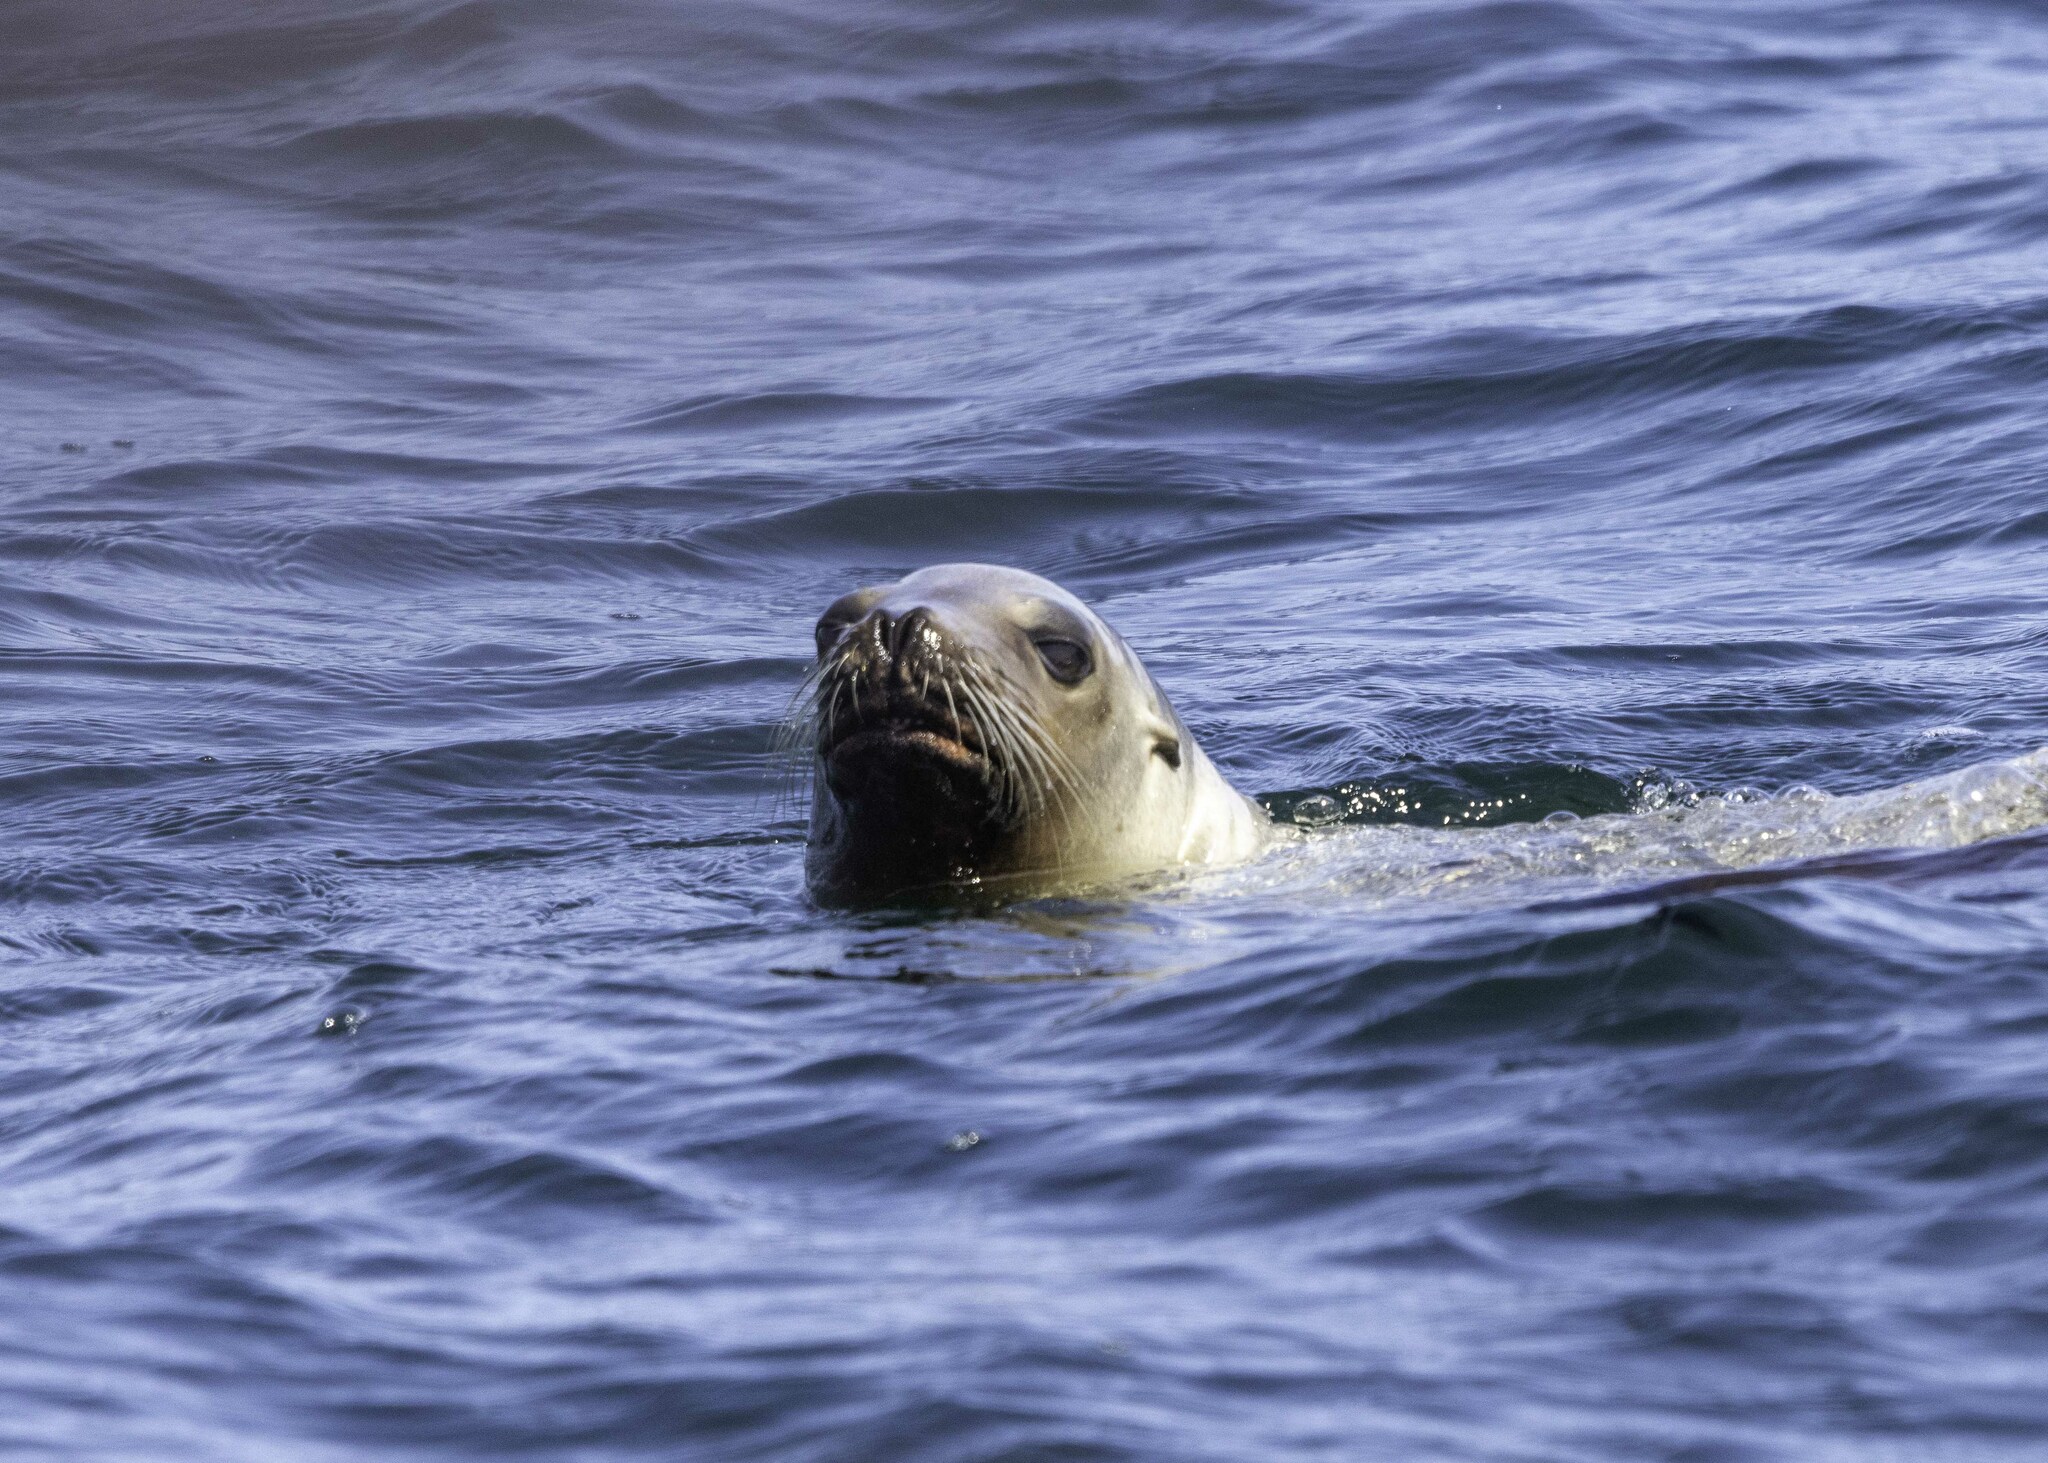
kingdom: Animalia
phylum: Chordata
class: Mammalia
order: Carnivora
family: Otariidae
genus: Zalophus
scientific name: Zalophus californianus
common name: California sea lion
